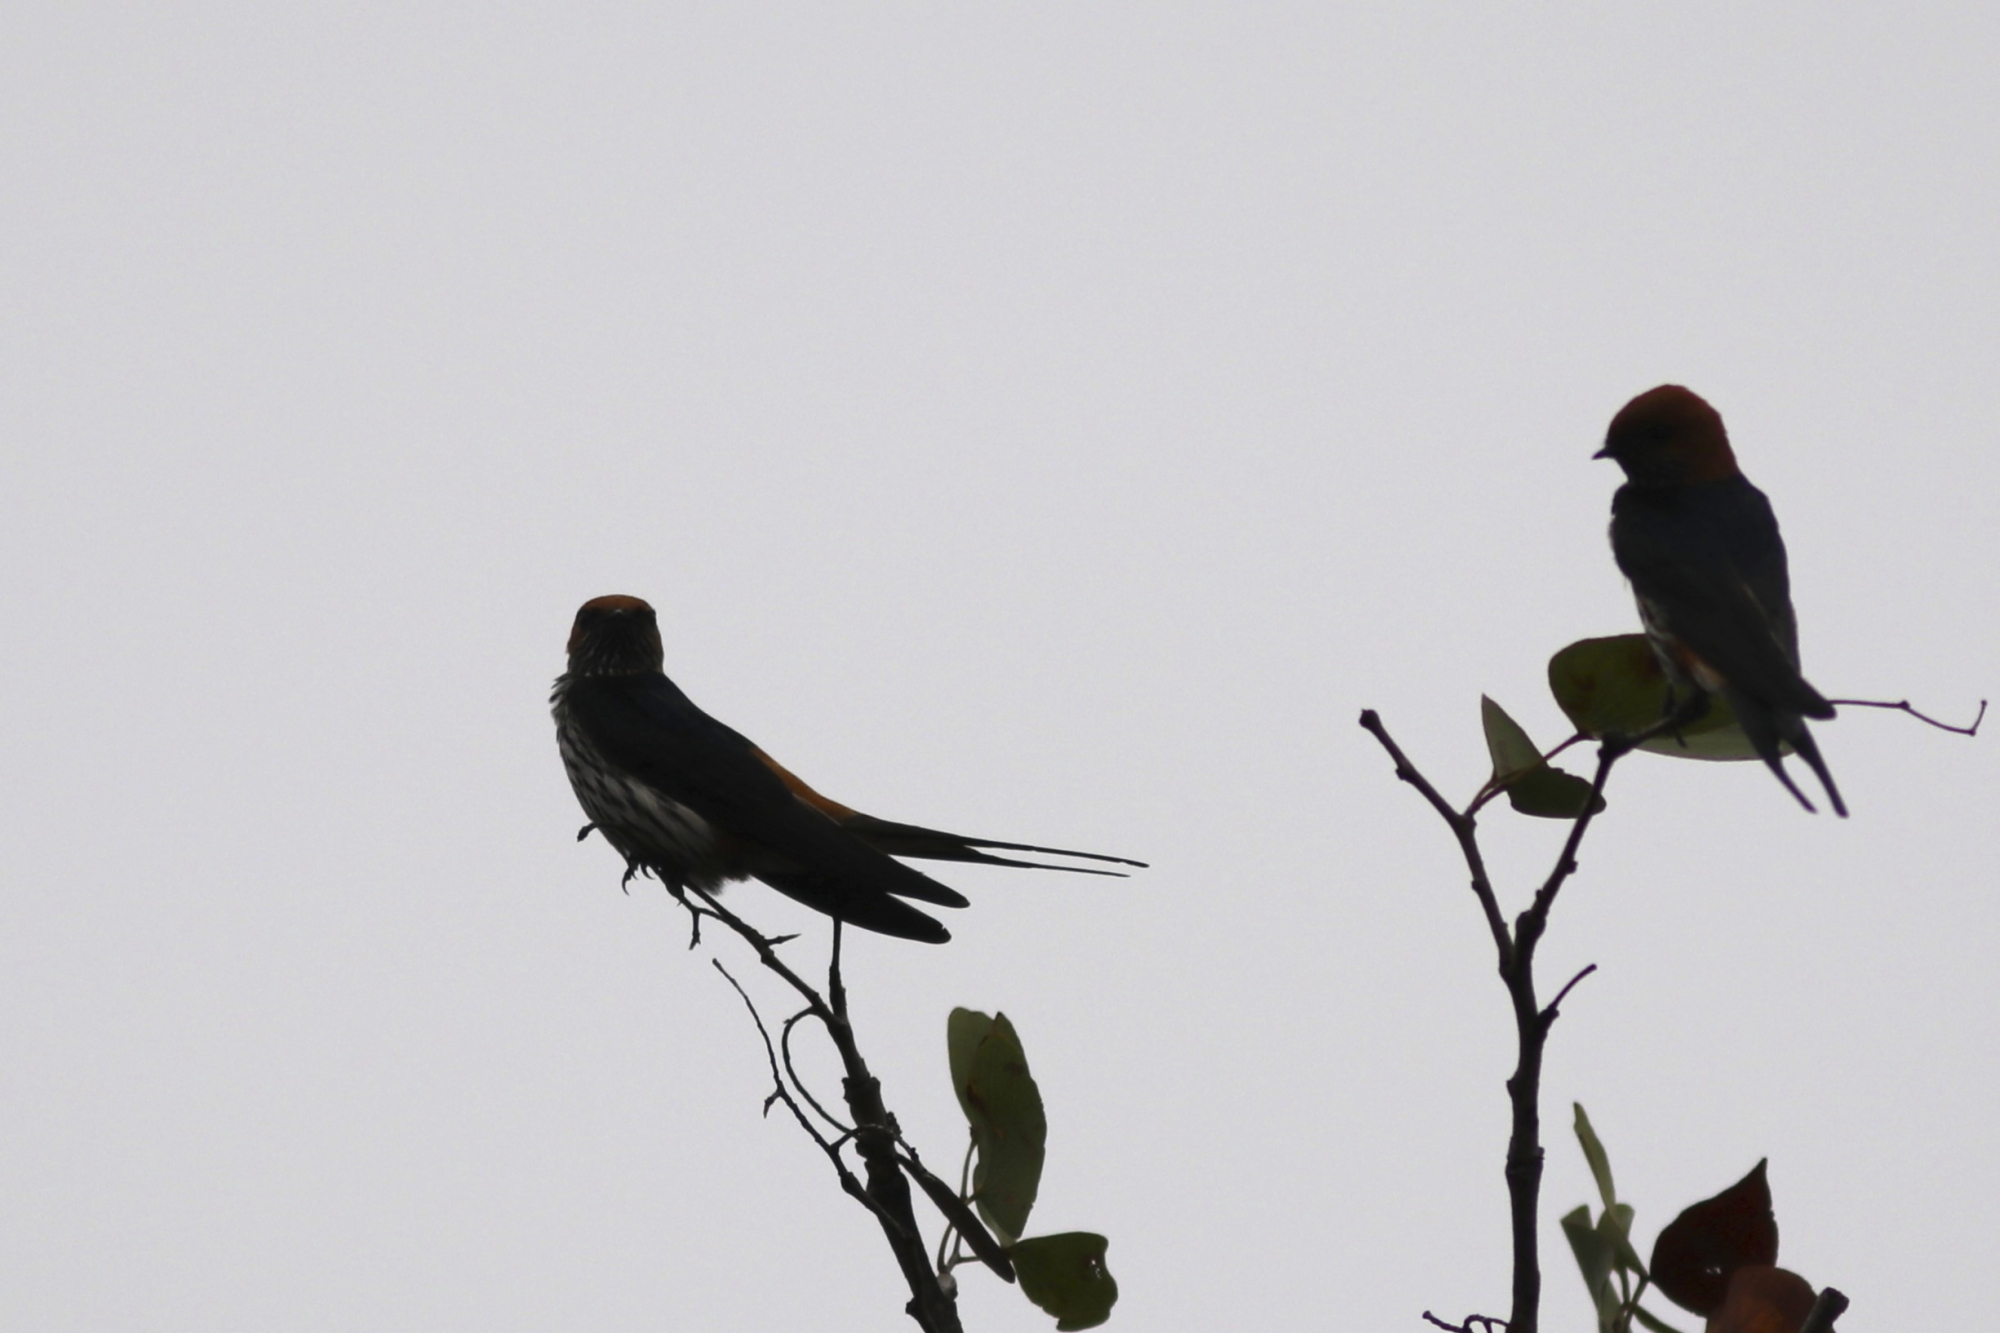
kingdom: Animalia
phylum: Chordata
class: Aves
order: Passeriformes
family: Hirundinidae
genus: Cecropis
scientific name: Cecropis abyssinica
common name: Lesser striped-swallow
